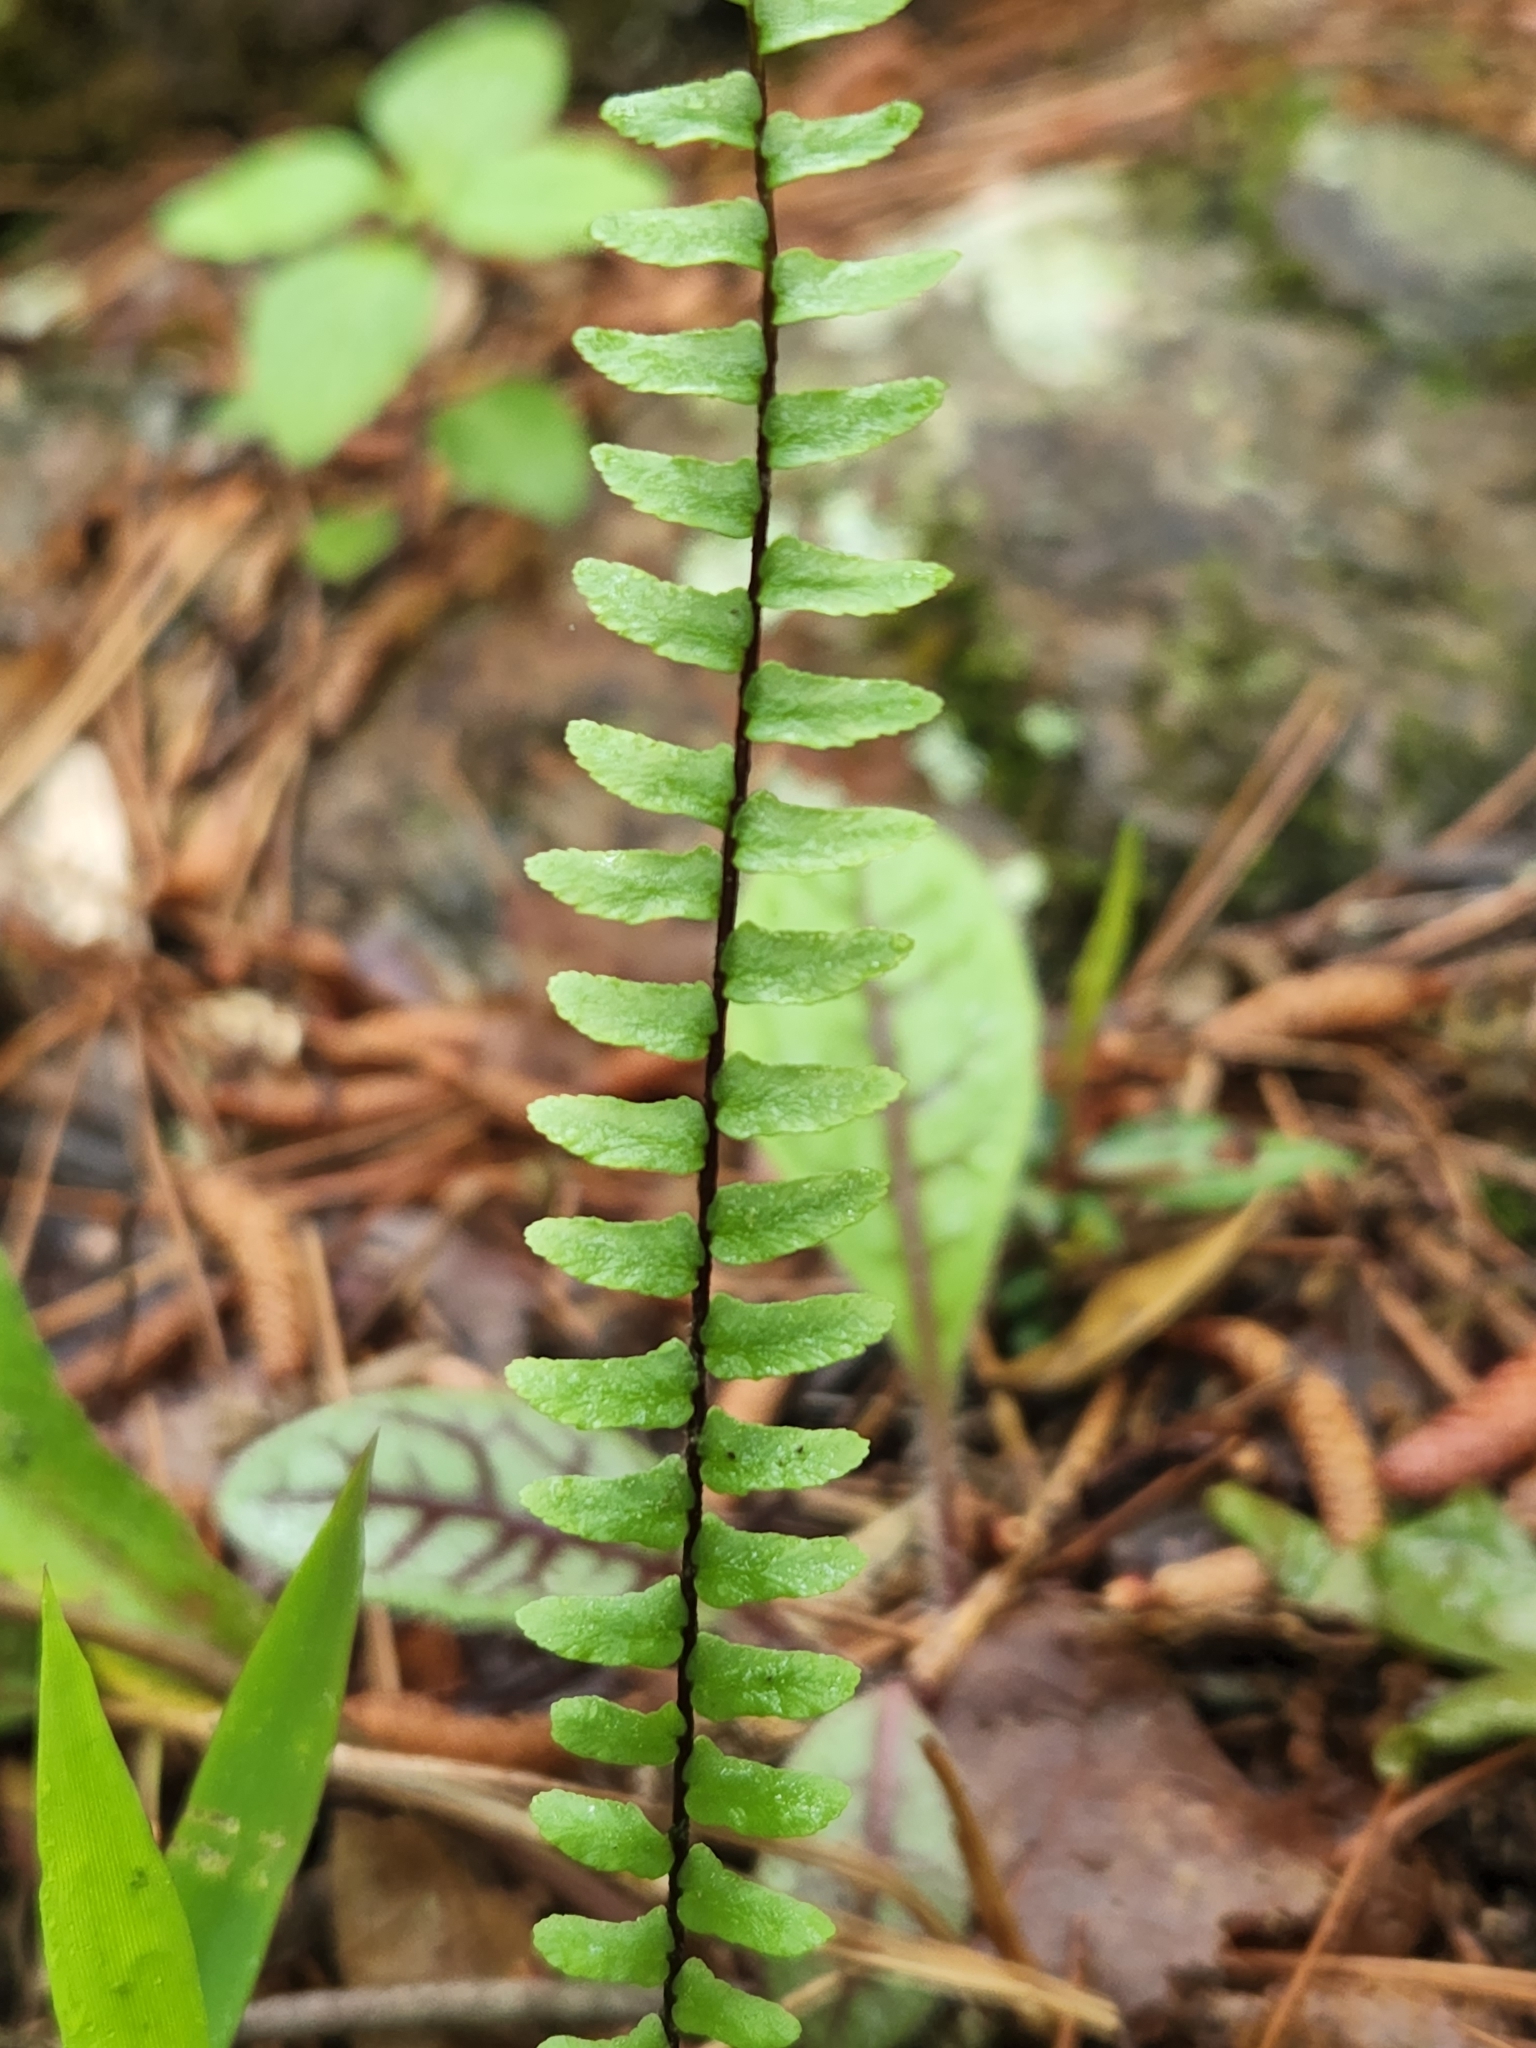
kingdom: Plantae
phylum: Tracheophyta
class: Polypodiopsida
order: Polypodiales
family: Aspleniaceae
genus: Asplenium
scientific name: Asplenium platyneuron
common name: Ebony spleenwort
